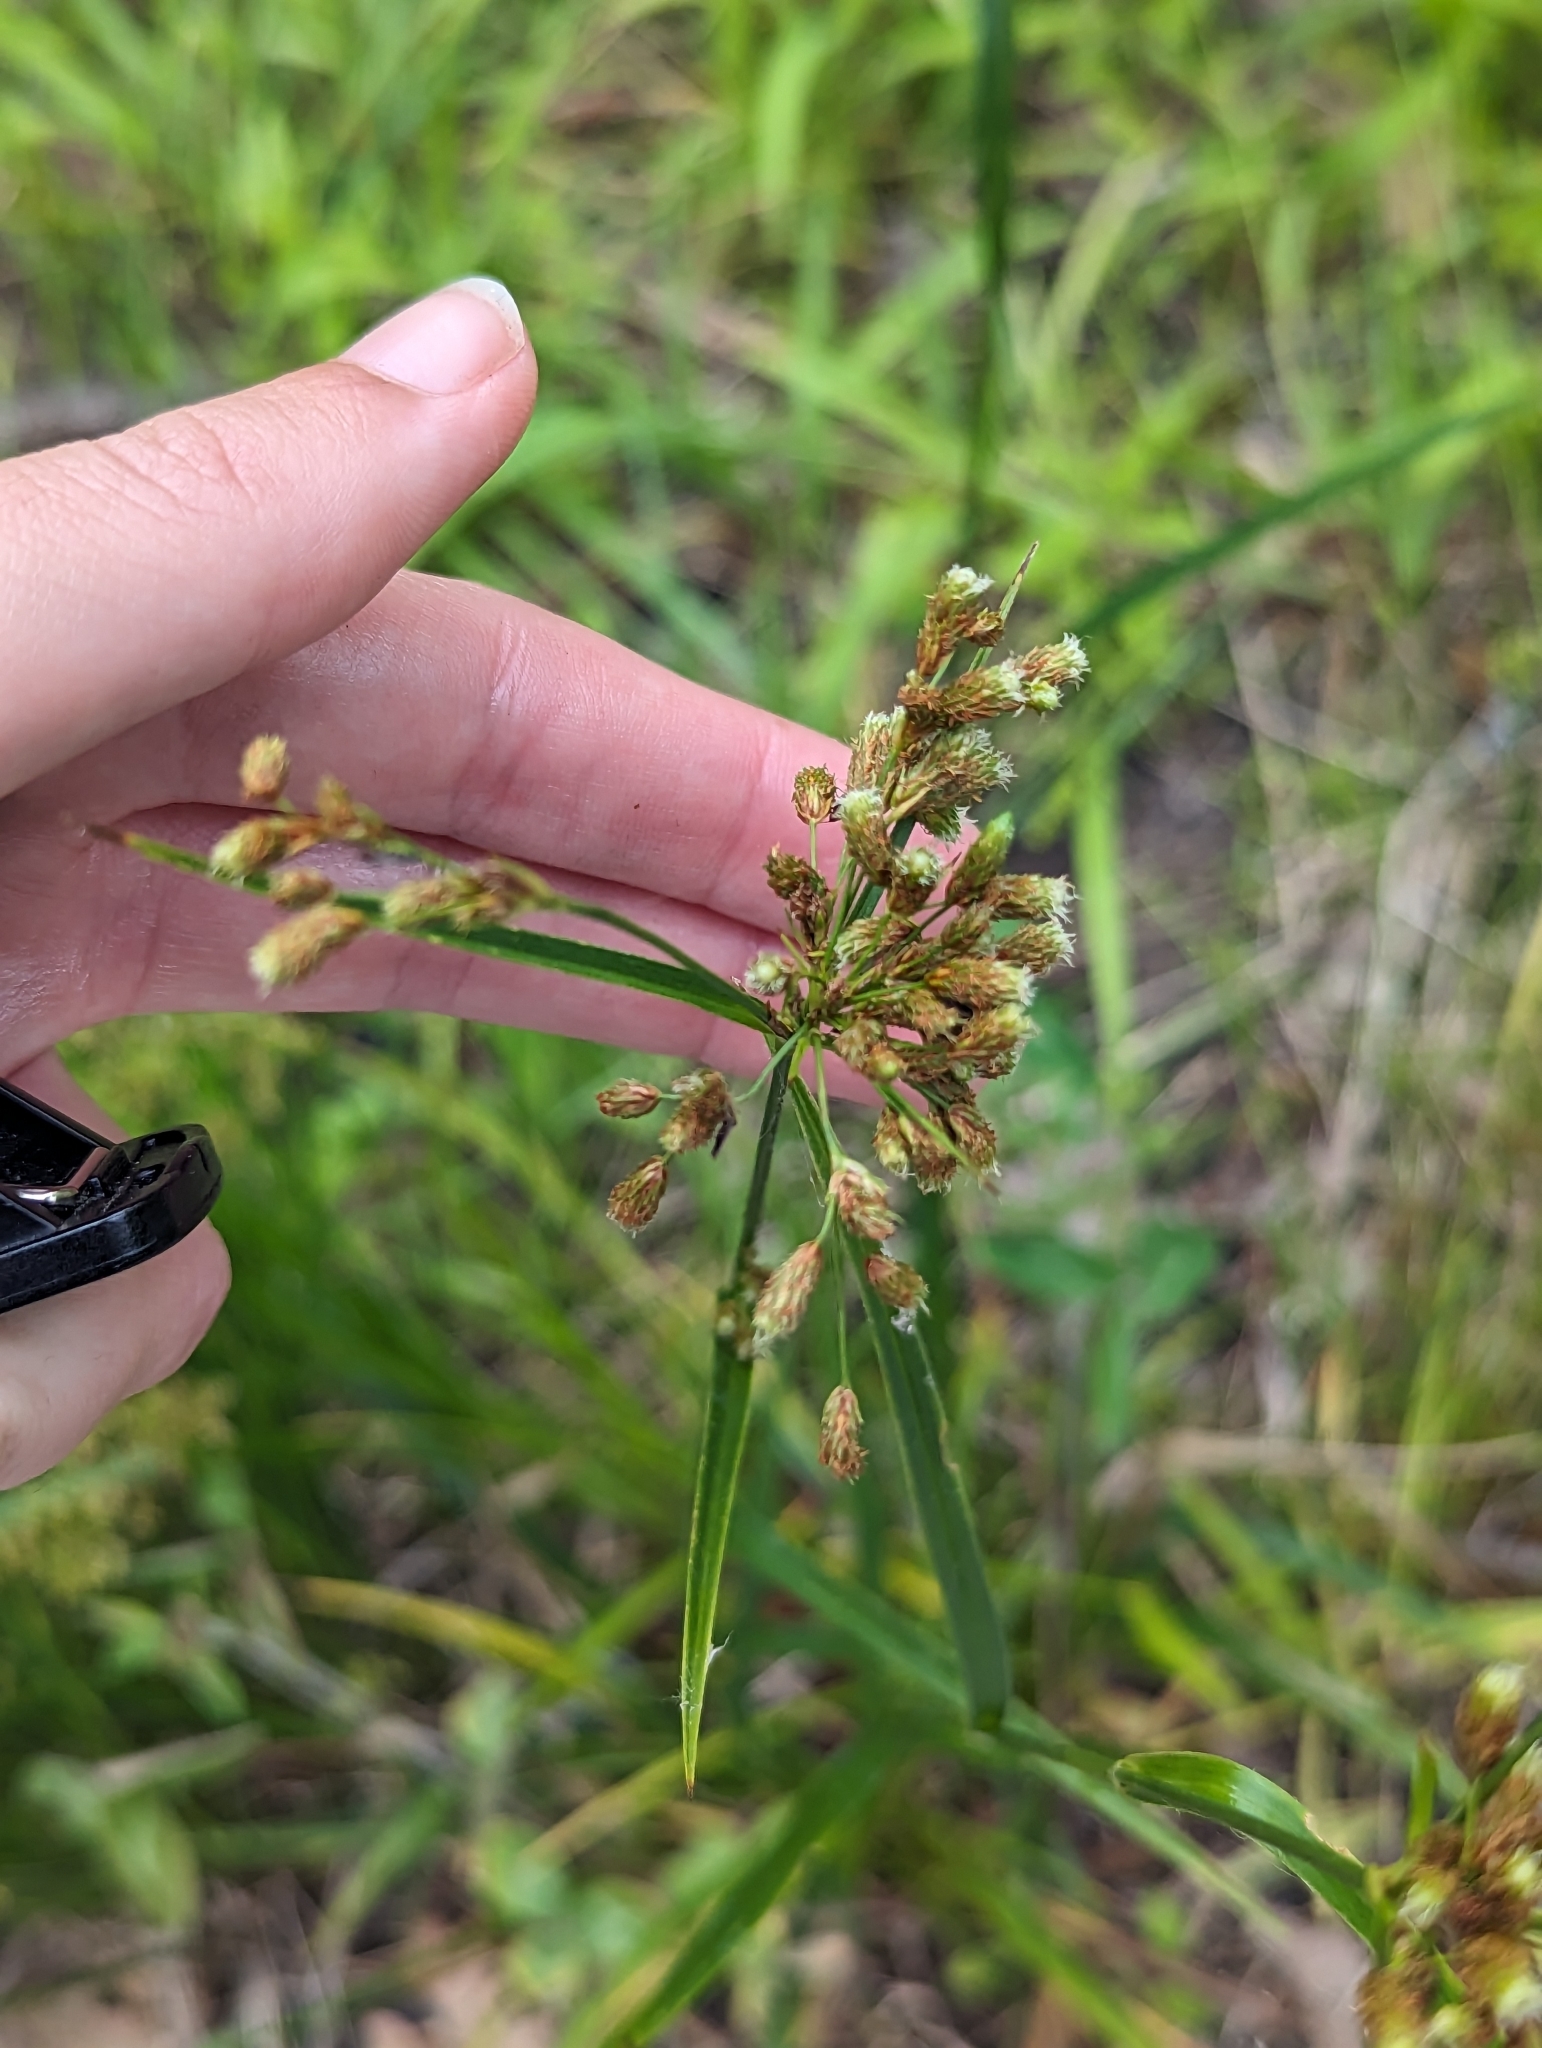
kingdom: Plantae
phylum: Tracheophyta
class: Liliopsida
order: Poales
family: Cyperaceae
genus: Scirpus
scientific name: Scirpus pendulus
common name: Nodding bulrush
